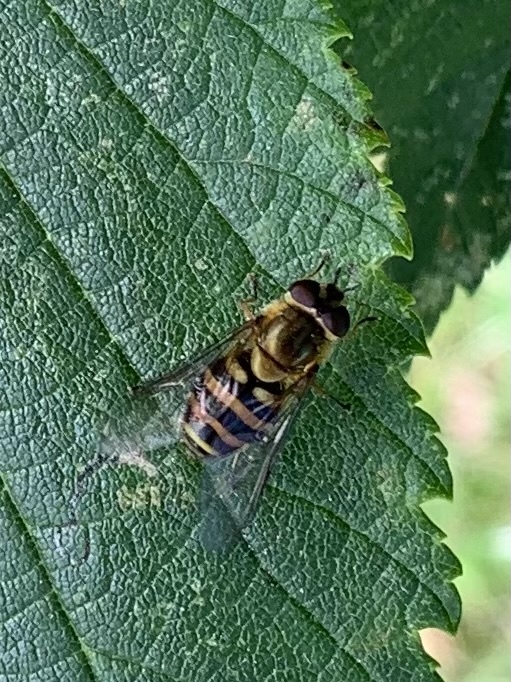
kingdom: Animalia
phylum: Arthropoda
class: Insecta
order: Diptera
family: Syrphidae
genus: Syrphus
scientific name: Syrphus
